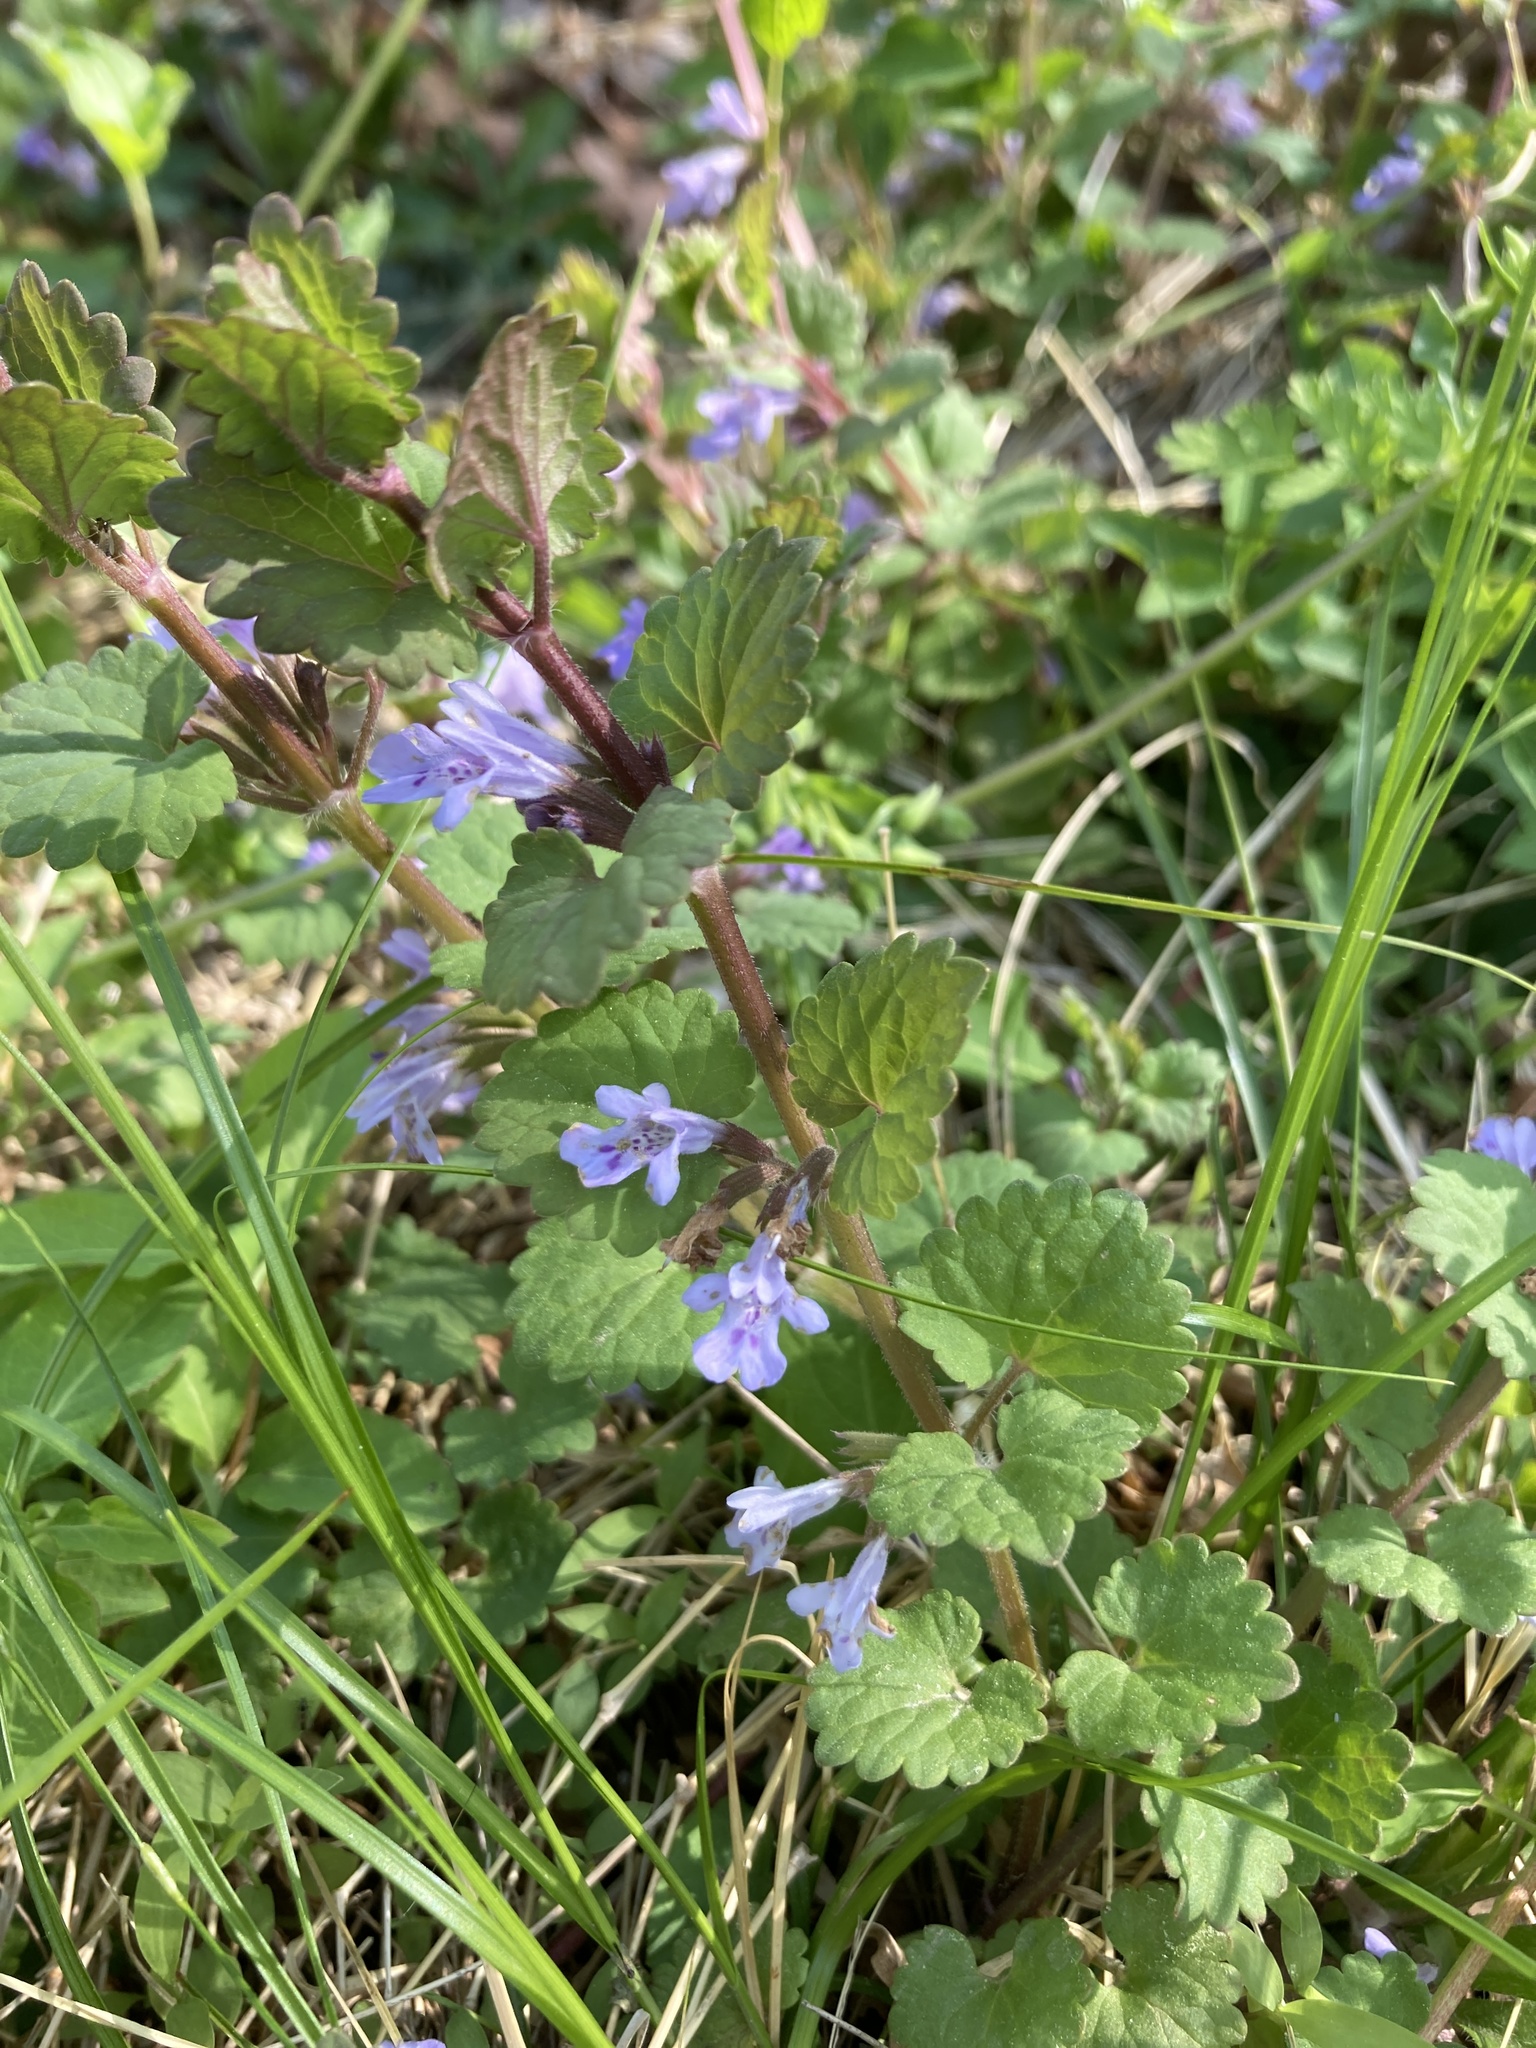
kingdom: Plantae
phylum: Tracheophyta
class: Magnoliopsida
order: Lamiales
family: Lamiaceae
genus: Glechoma
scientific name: Glechoma hederacea
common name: Ground ivy
